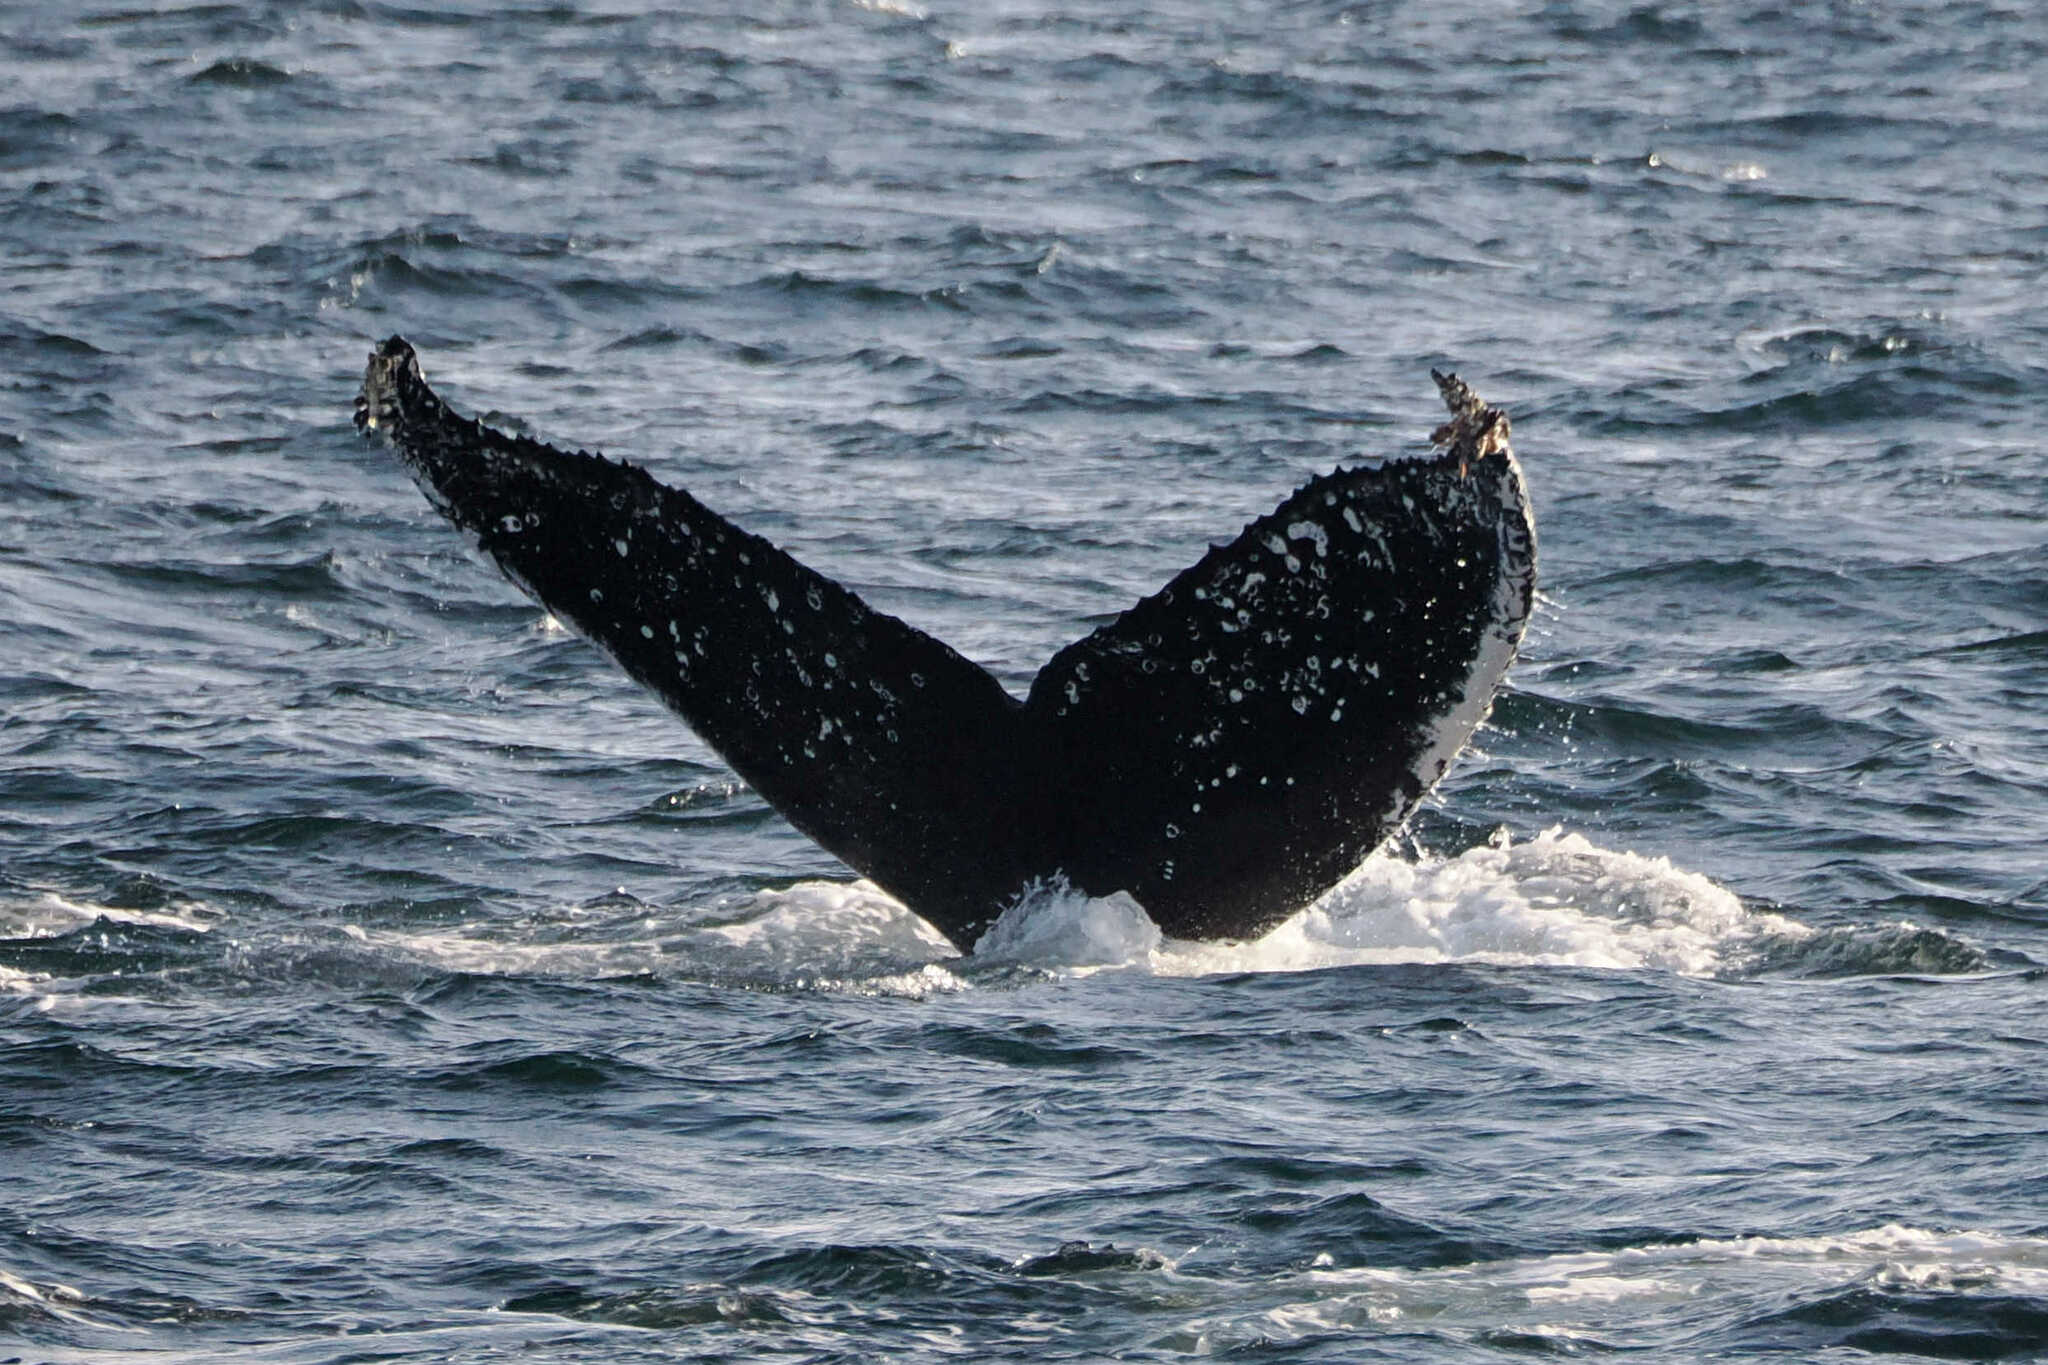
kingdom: Animalia
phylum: Chordata
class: Mammalia
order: Cetacea
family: Balaenopteridae
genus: Megaptera
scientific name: Megaptera novaeangliae
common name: Humpback whale
